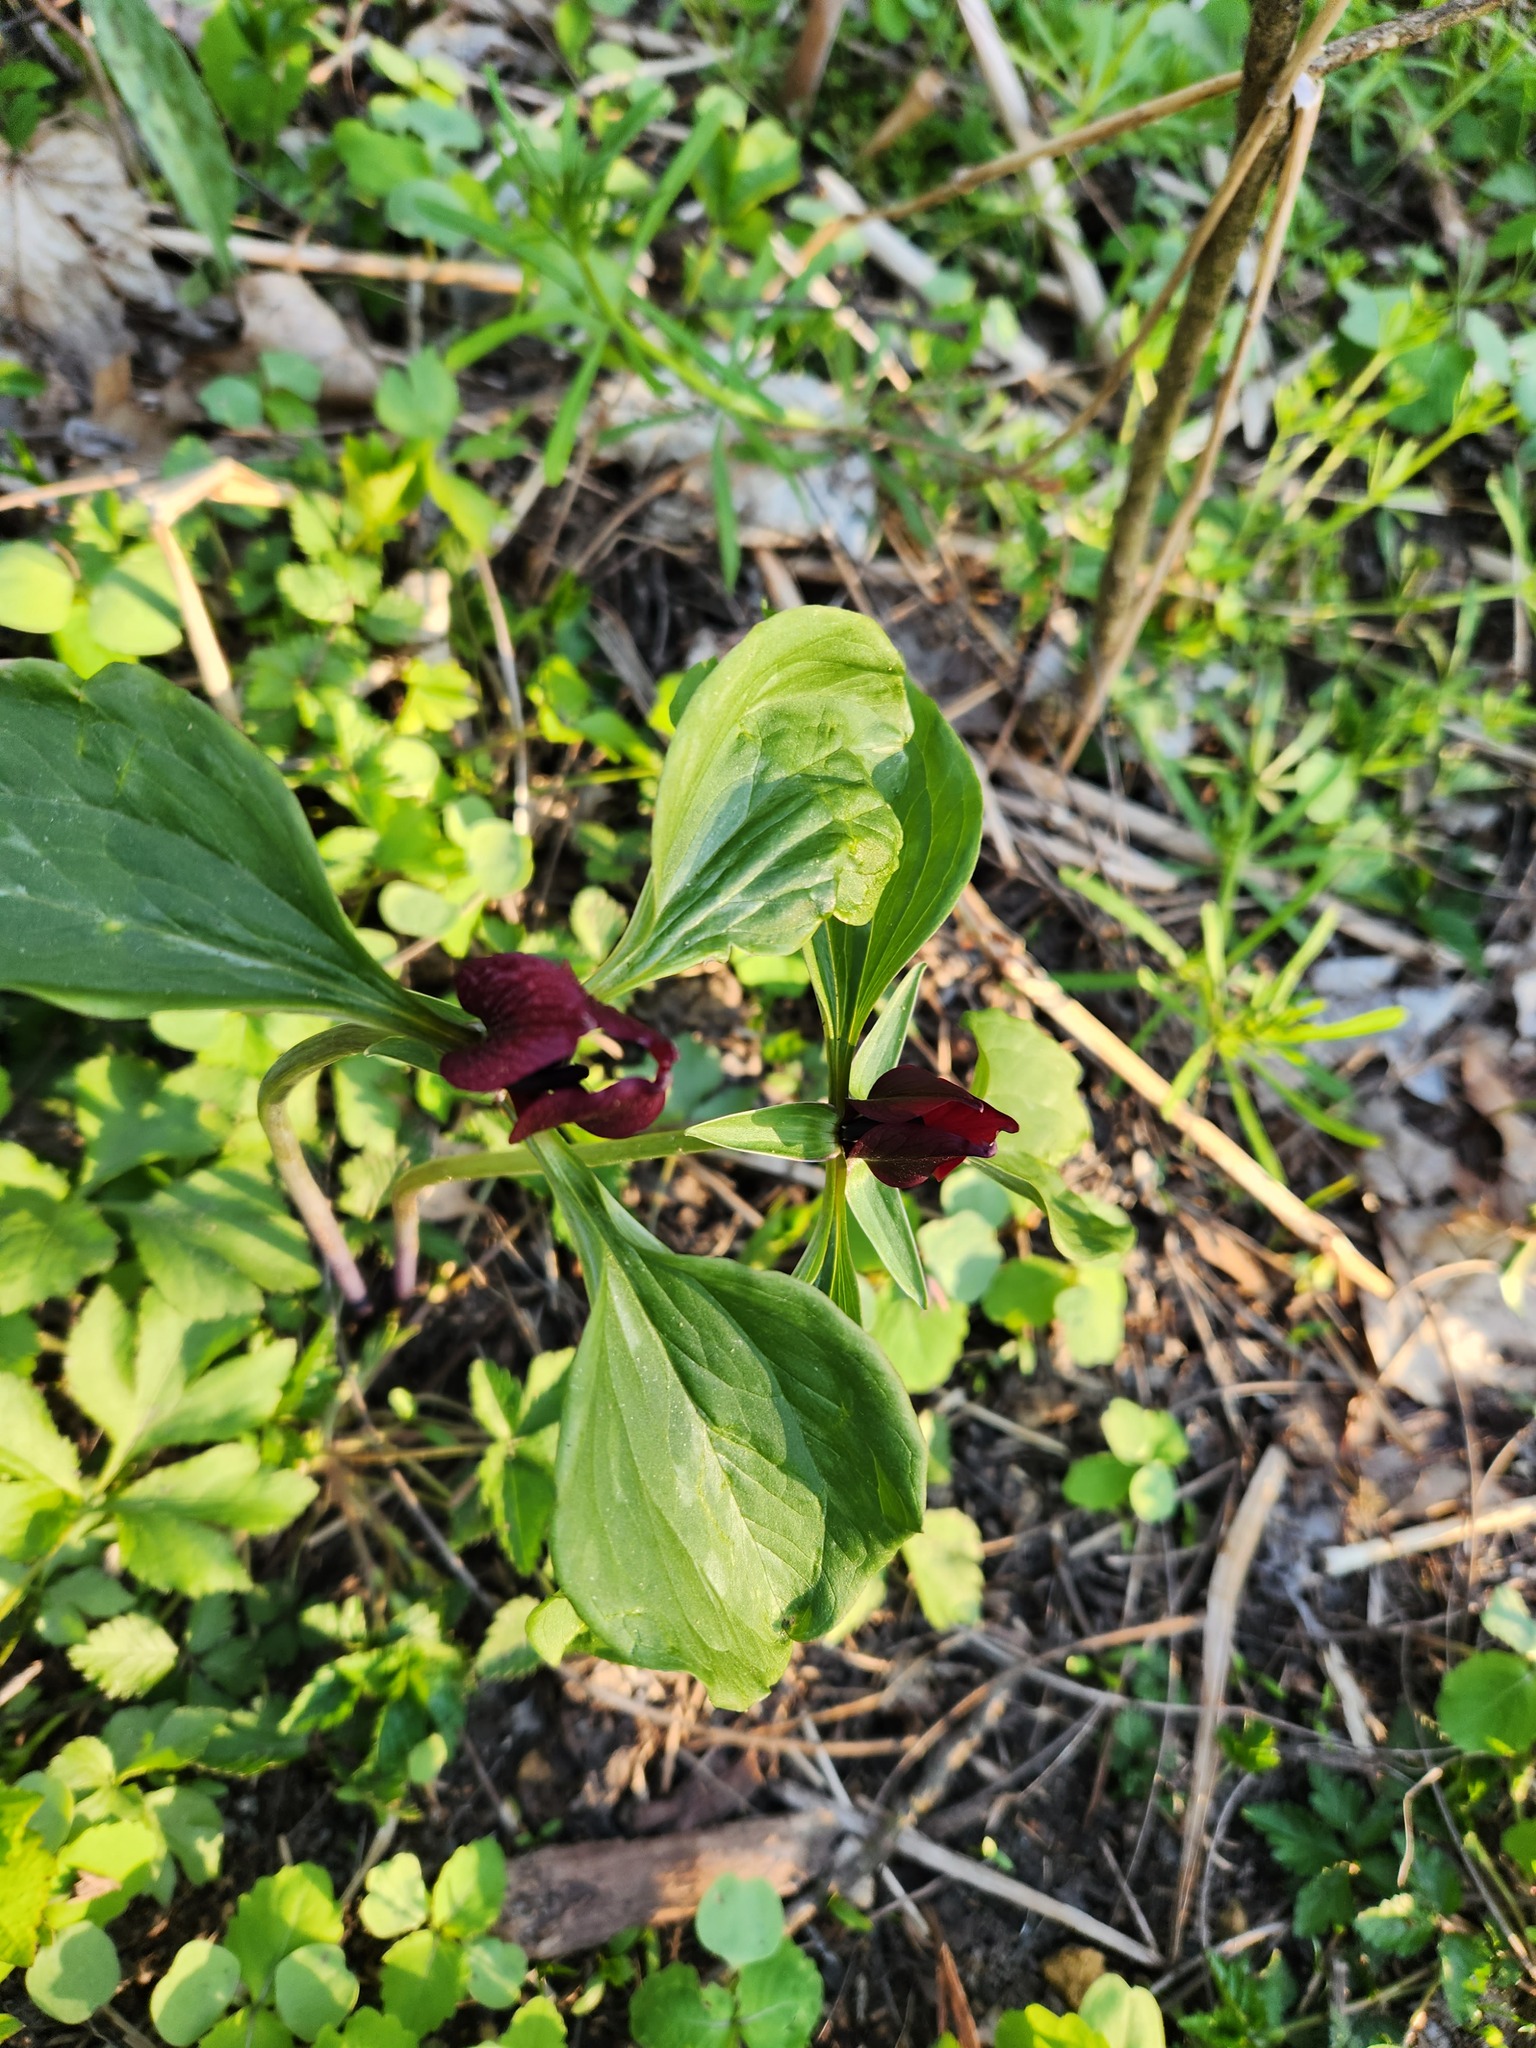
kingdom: Plantae
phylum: Tracheophyta
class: Liliopsida
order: Liliales
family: Melanthiaceae
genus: Trillium
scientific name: Trillium recurvatum
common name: Bloody butcher
